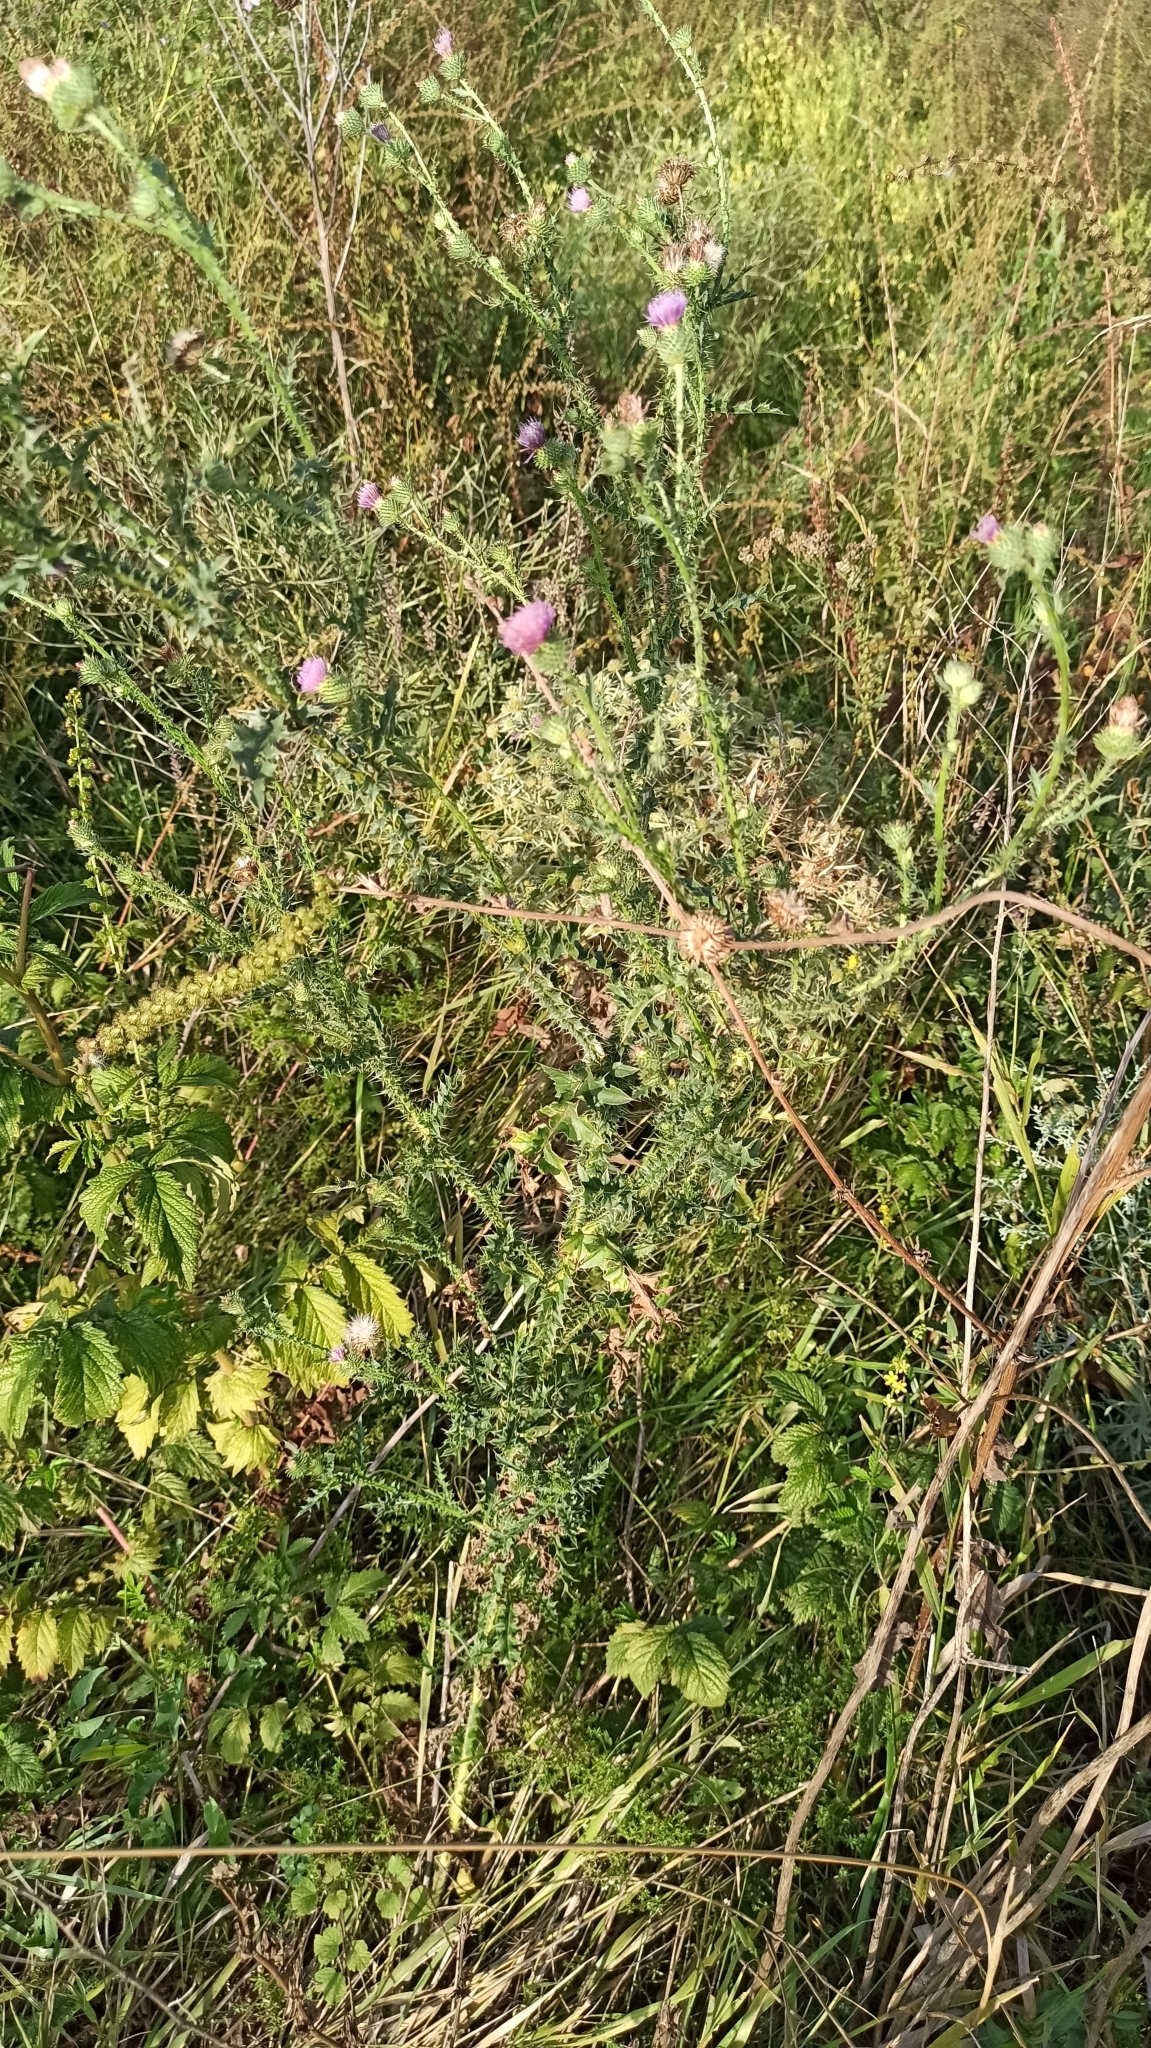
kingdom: Plantae
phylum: Tracheophyta
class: Magnoliopsida
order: Asterales
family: Asteraceae
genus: Carduus
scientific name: Carduus acanthoides
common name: Plumeless thistle
